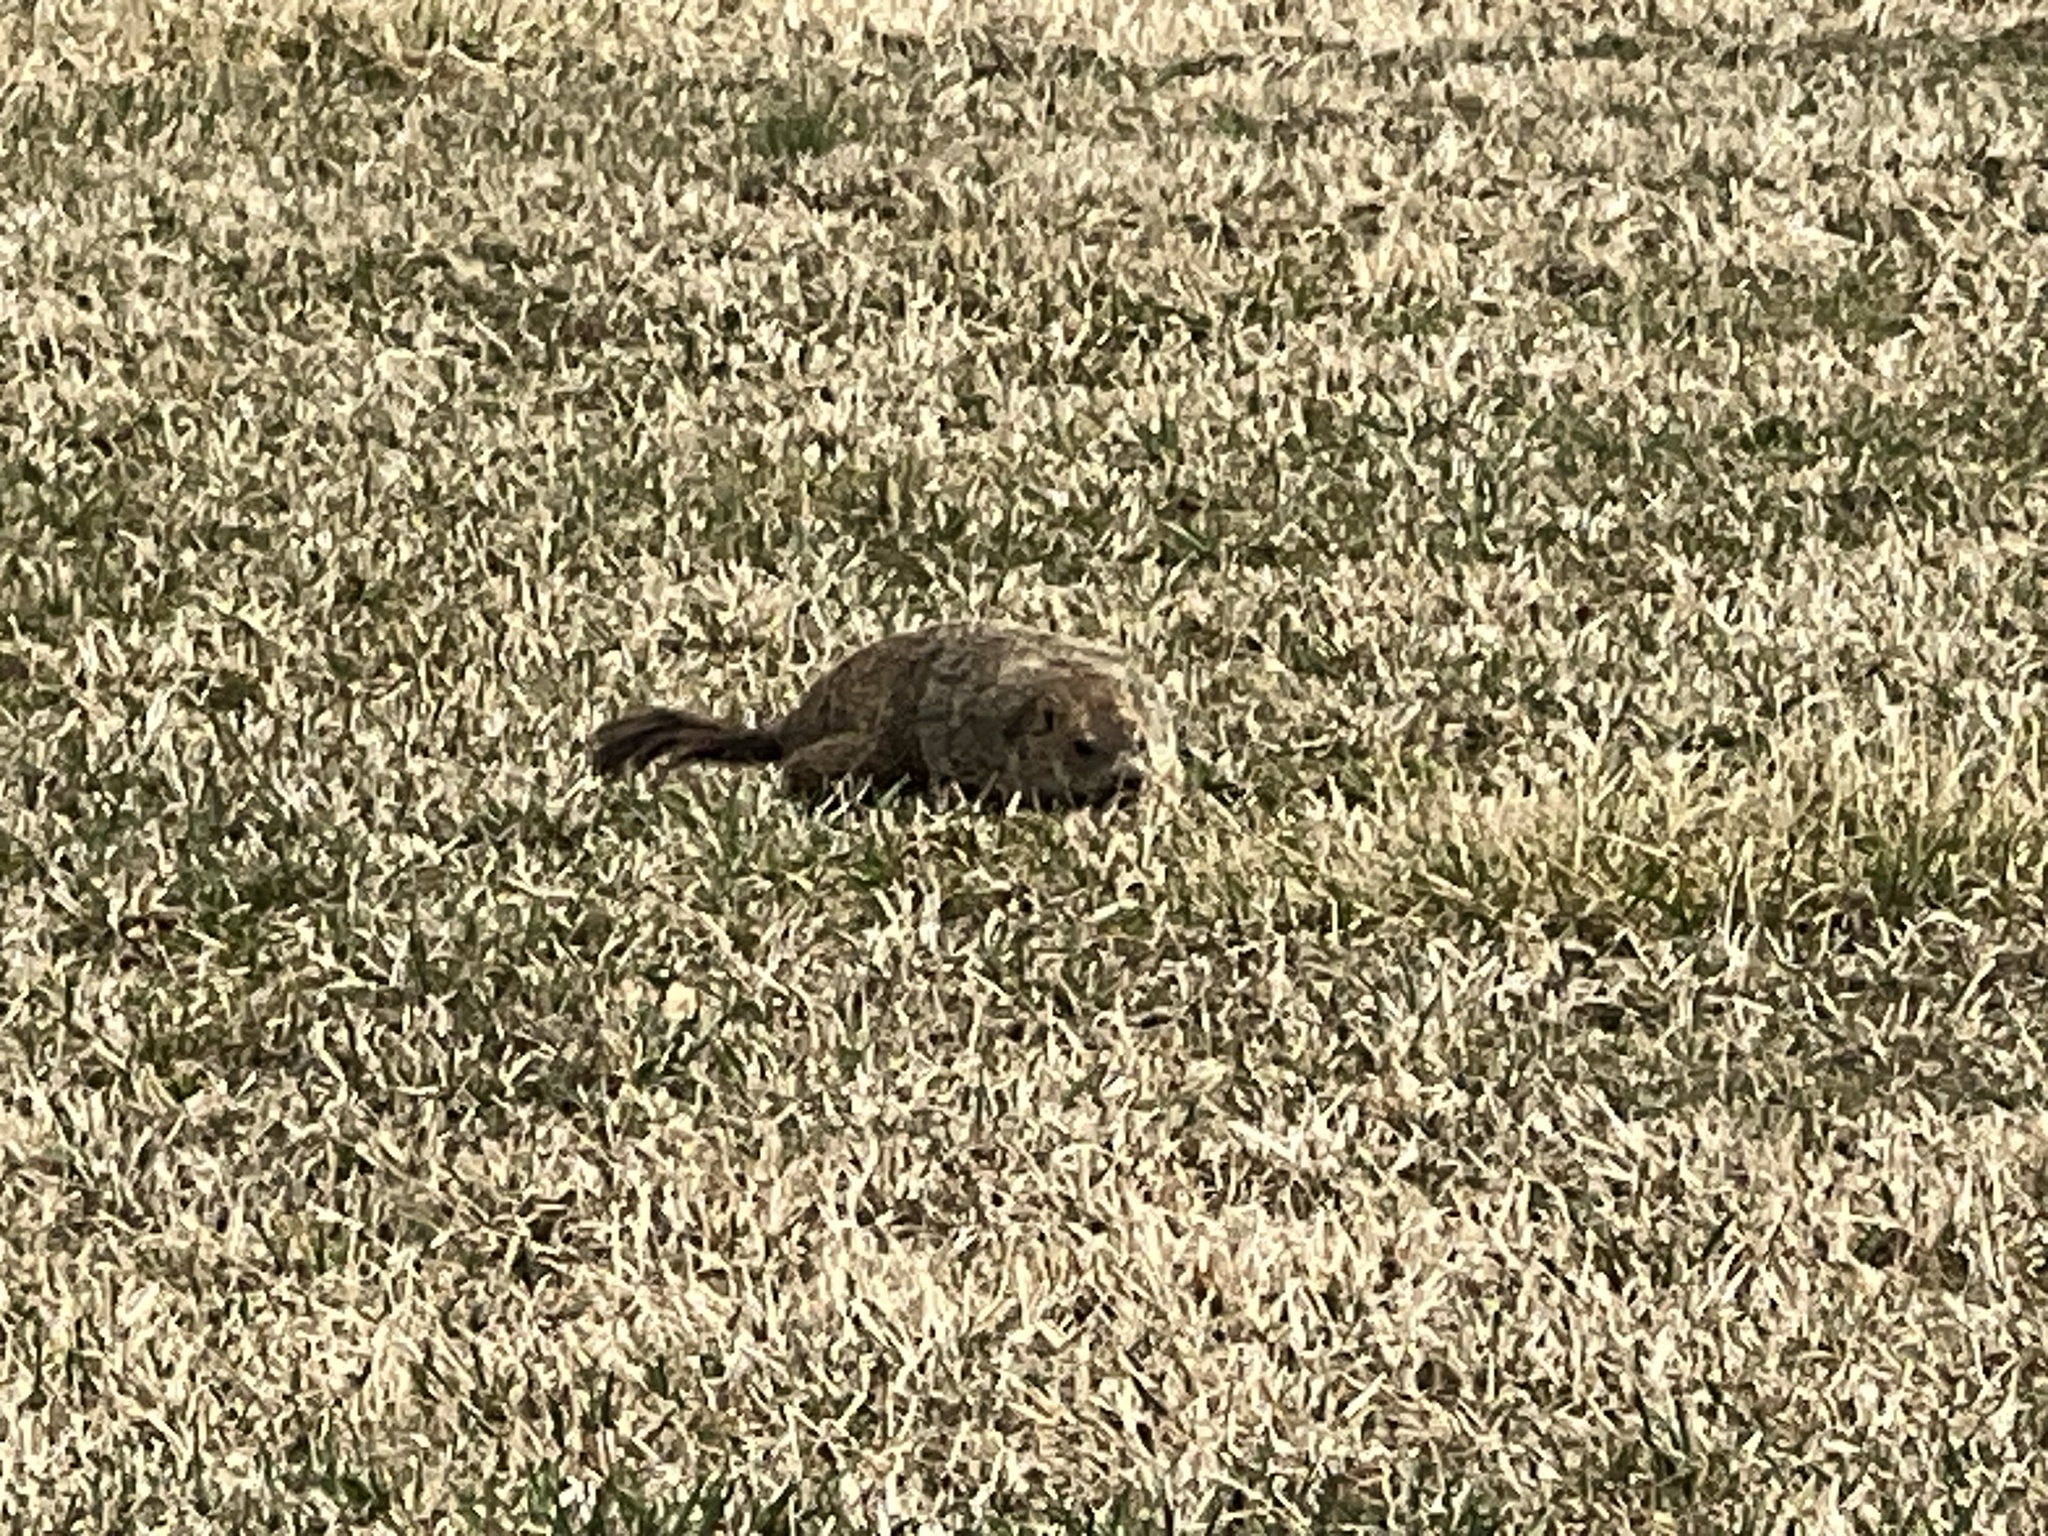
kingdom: Animalia
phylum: Chordata
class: Mammalia
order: Rodentia
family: Sciuridae
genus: Marmota
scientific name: Marmota monax
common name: Groundhog
